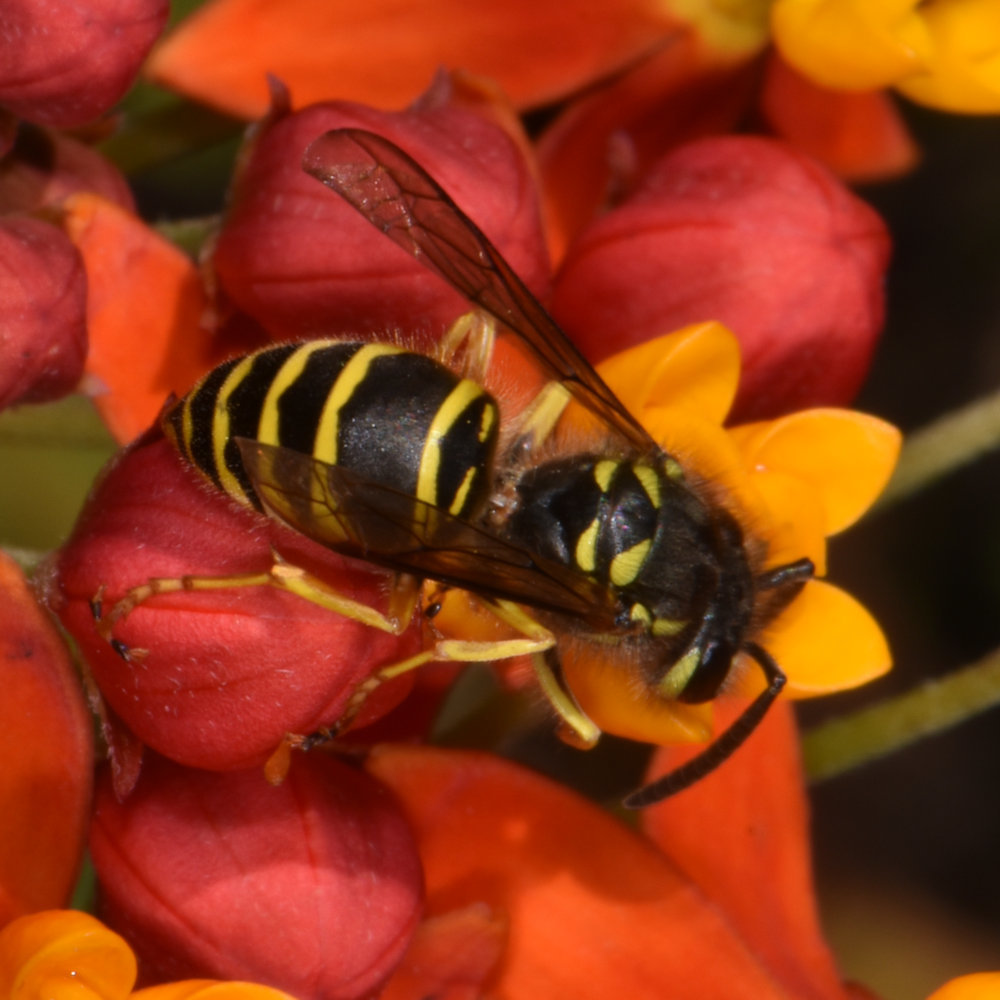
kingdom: Animalia
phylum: Arthropoda
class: Insecta
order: Hymenoptera
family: Vespidae
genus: Vespula
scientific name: Vespula maculifrons
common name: Eastern yellowjacket
